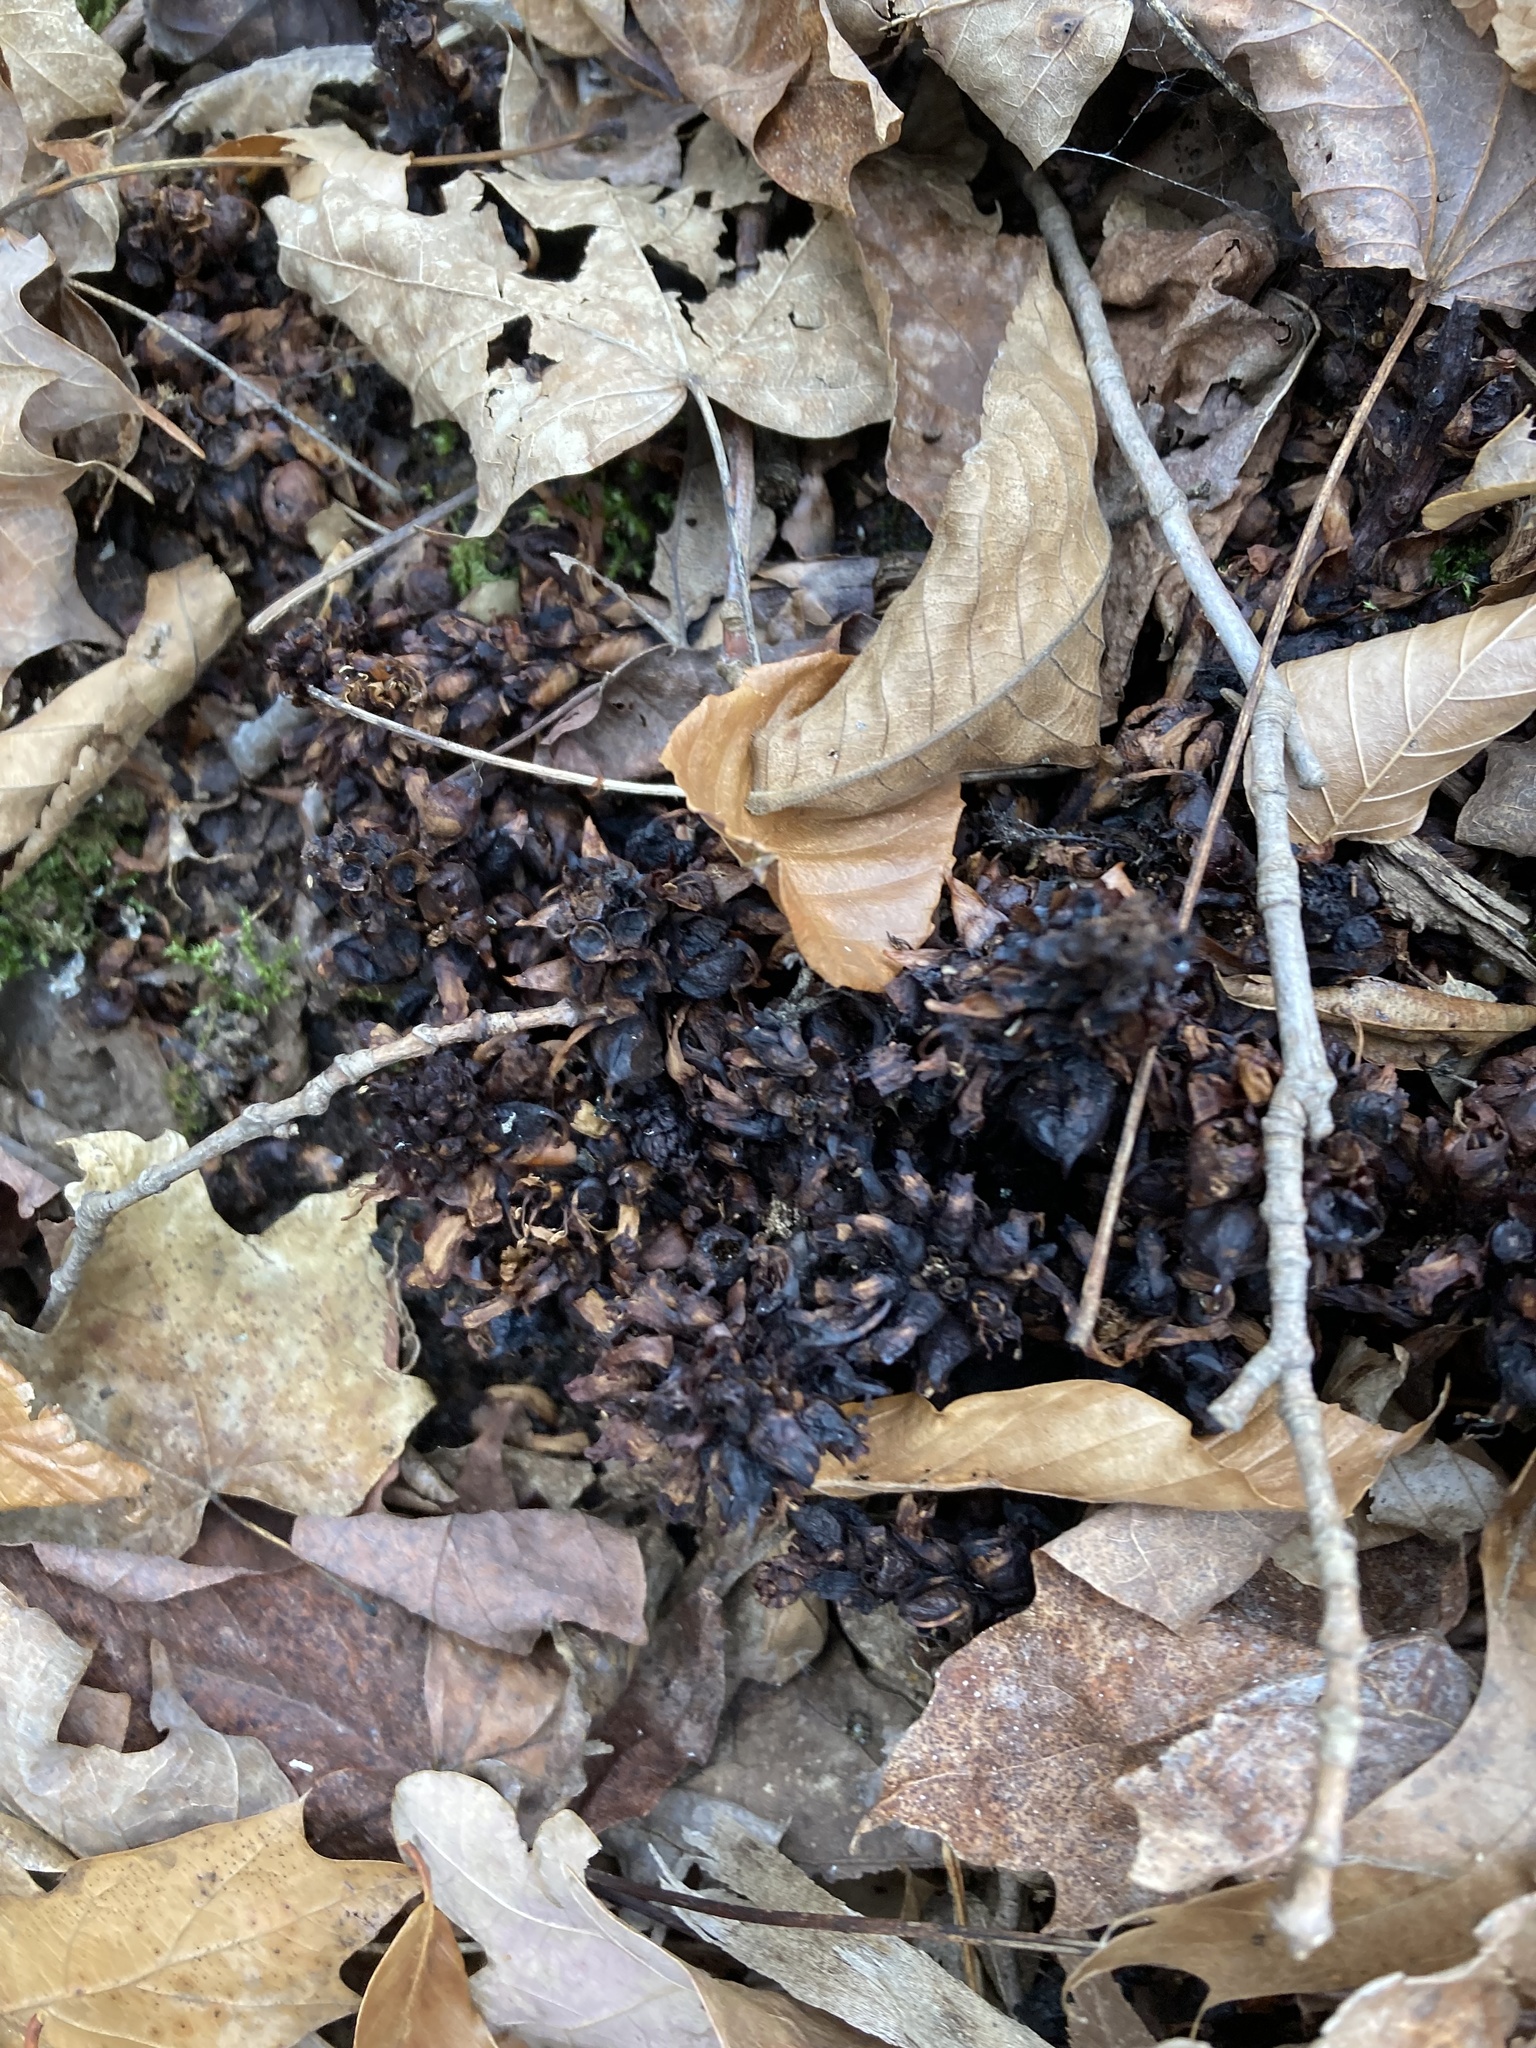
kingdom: Plantae
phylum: Tracheophyta
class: Magnoliopsida
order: Lamiales
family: Orobanchaceae
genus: Conopholis
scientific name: Conopholis americana
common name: American cancer-root
